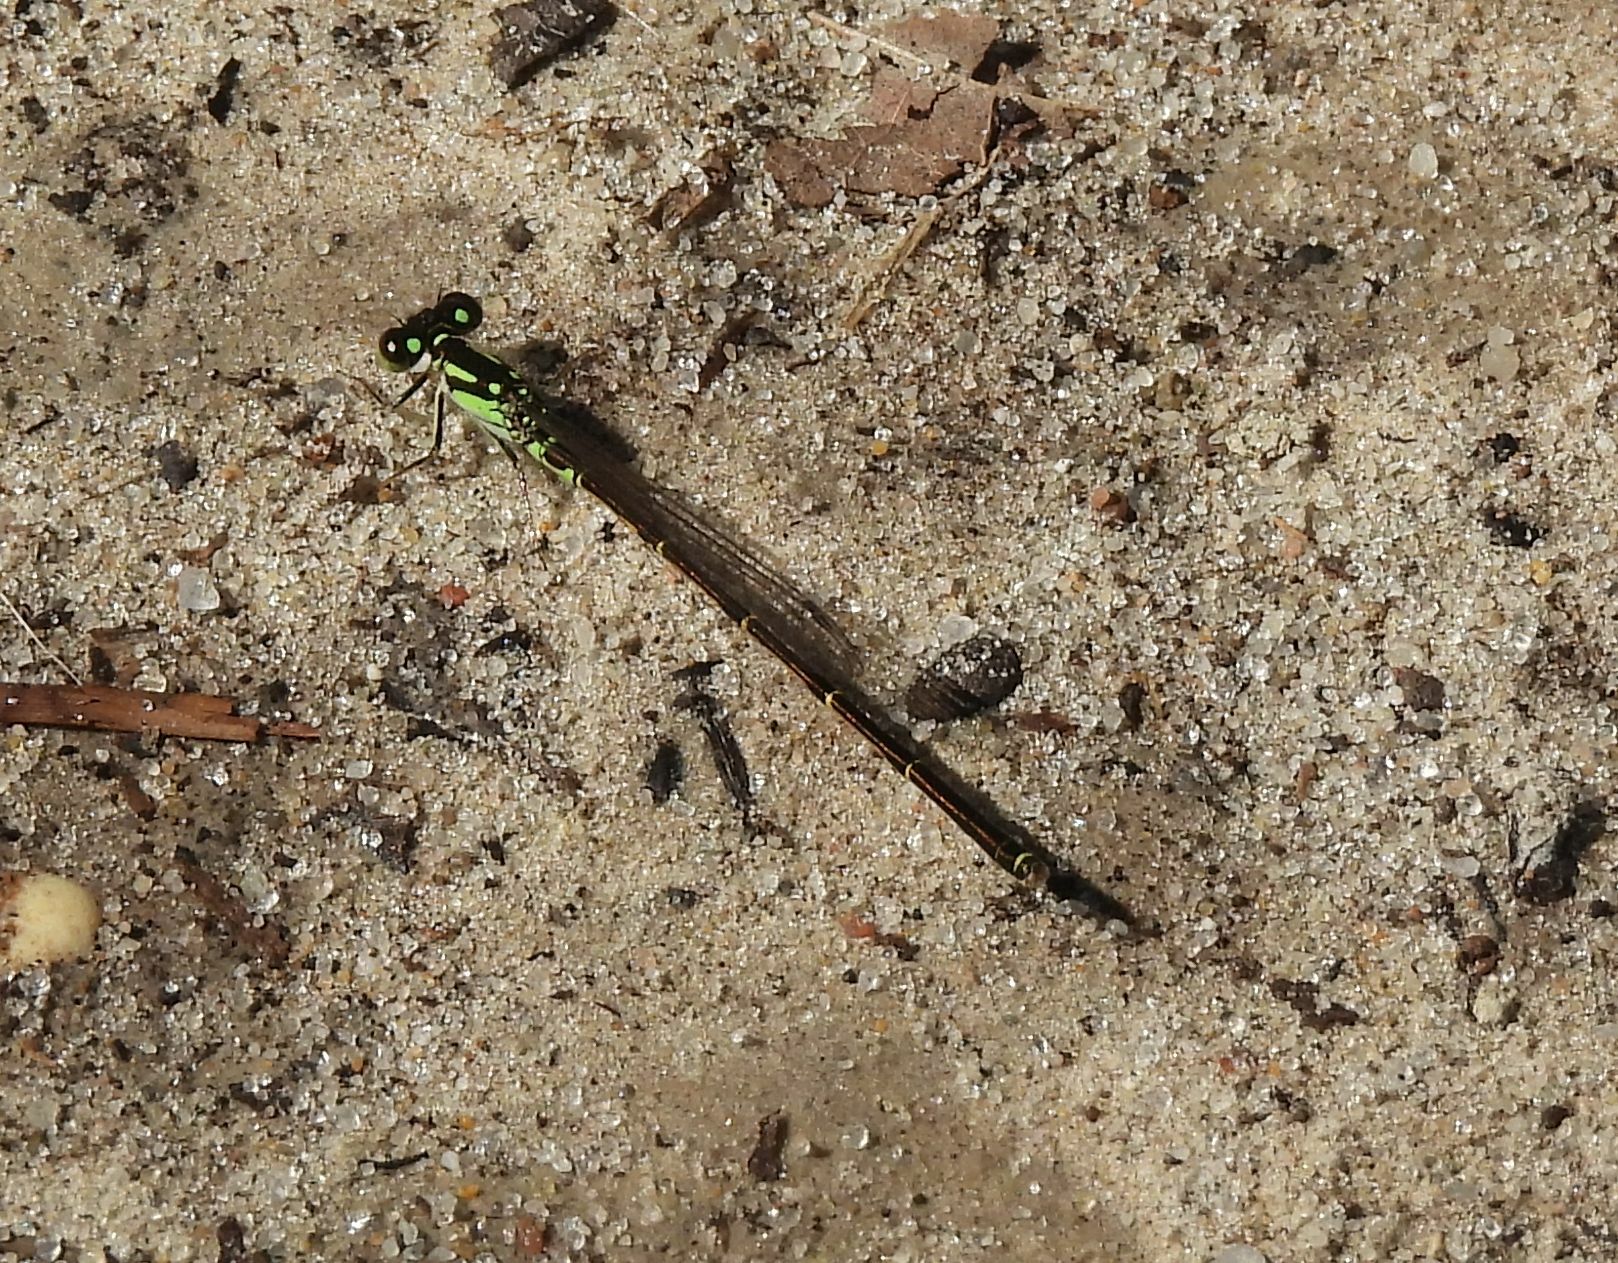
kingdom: Animalia
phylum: Arthropoda
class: Insecta
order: Odonata
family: Coenagrionidae
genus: Ischnura
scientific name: Ischnura posita
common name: Fragile forktail
